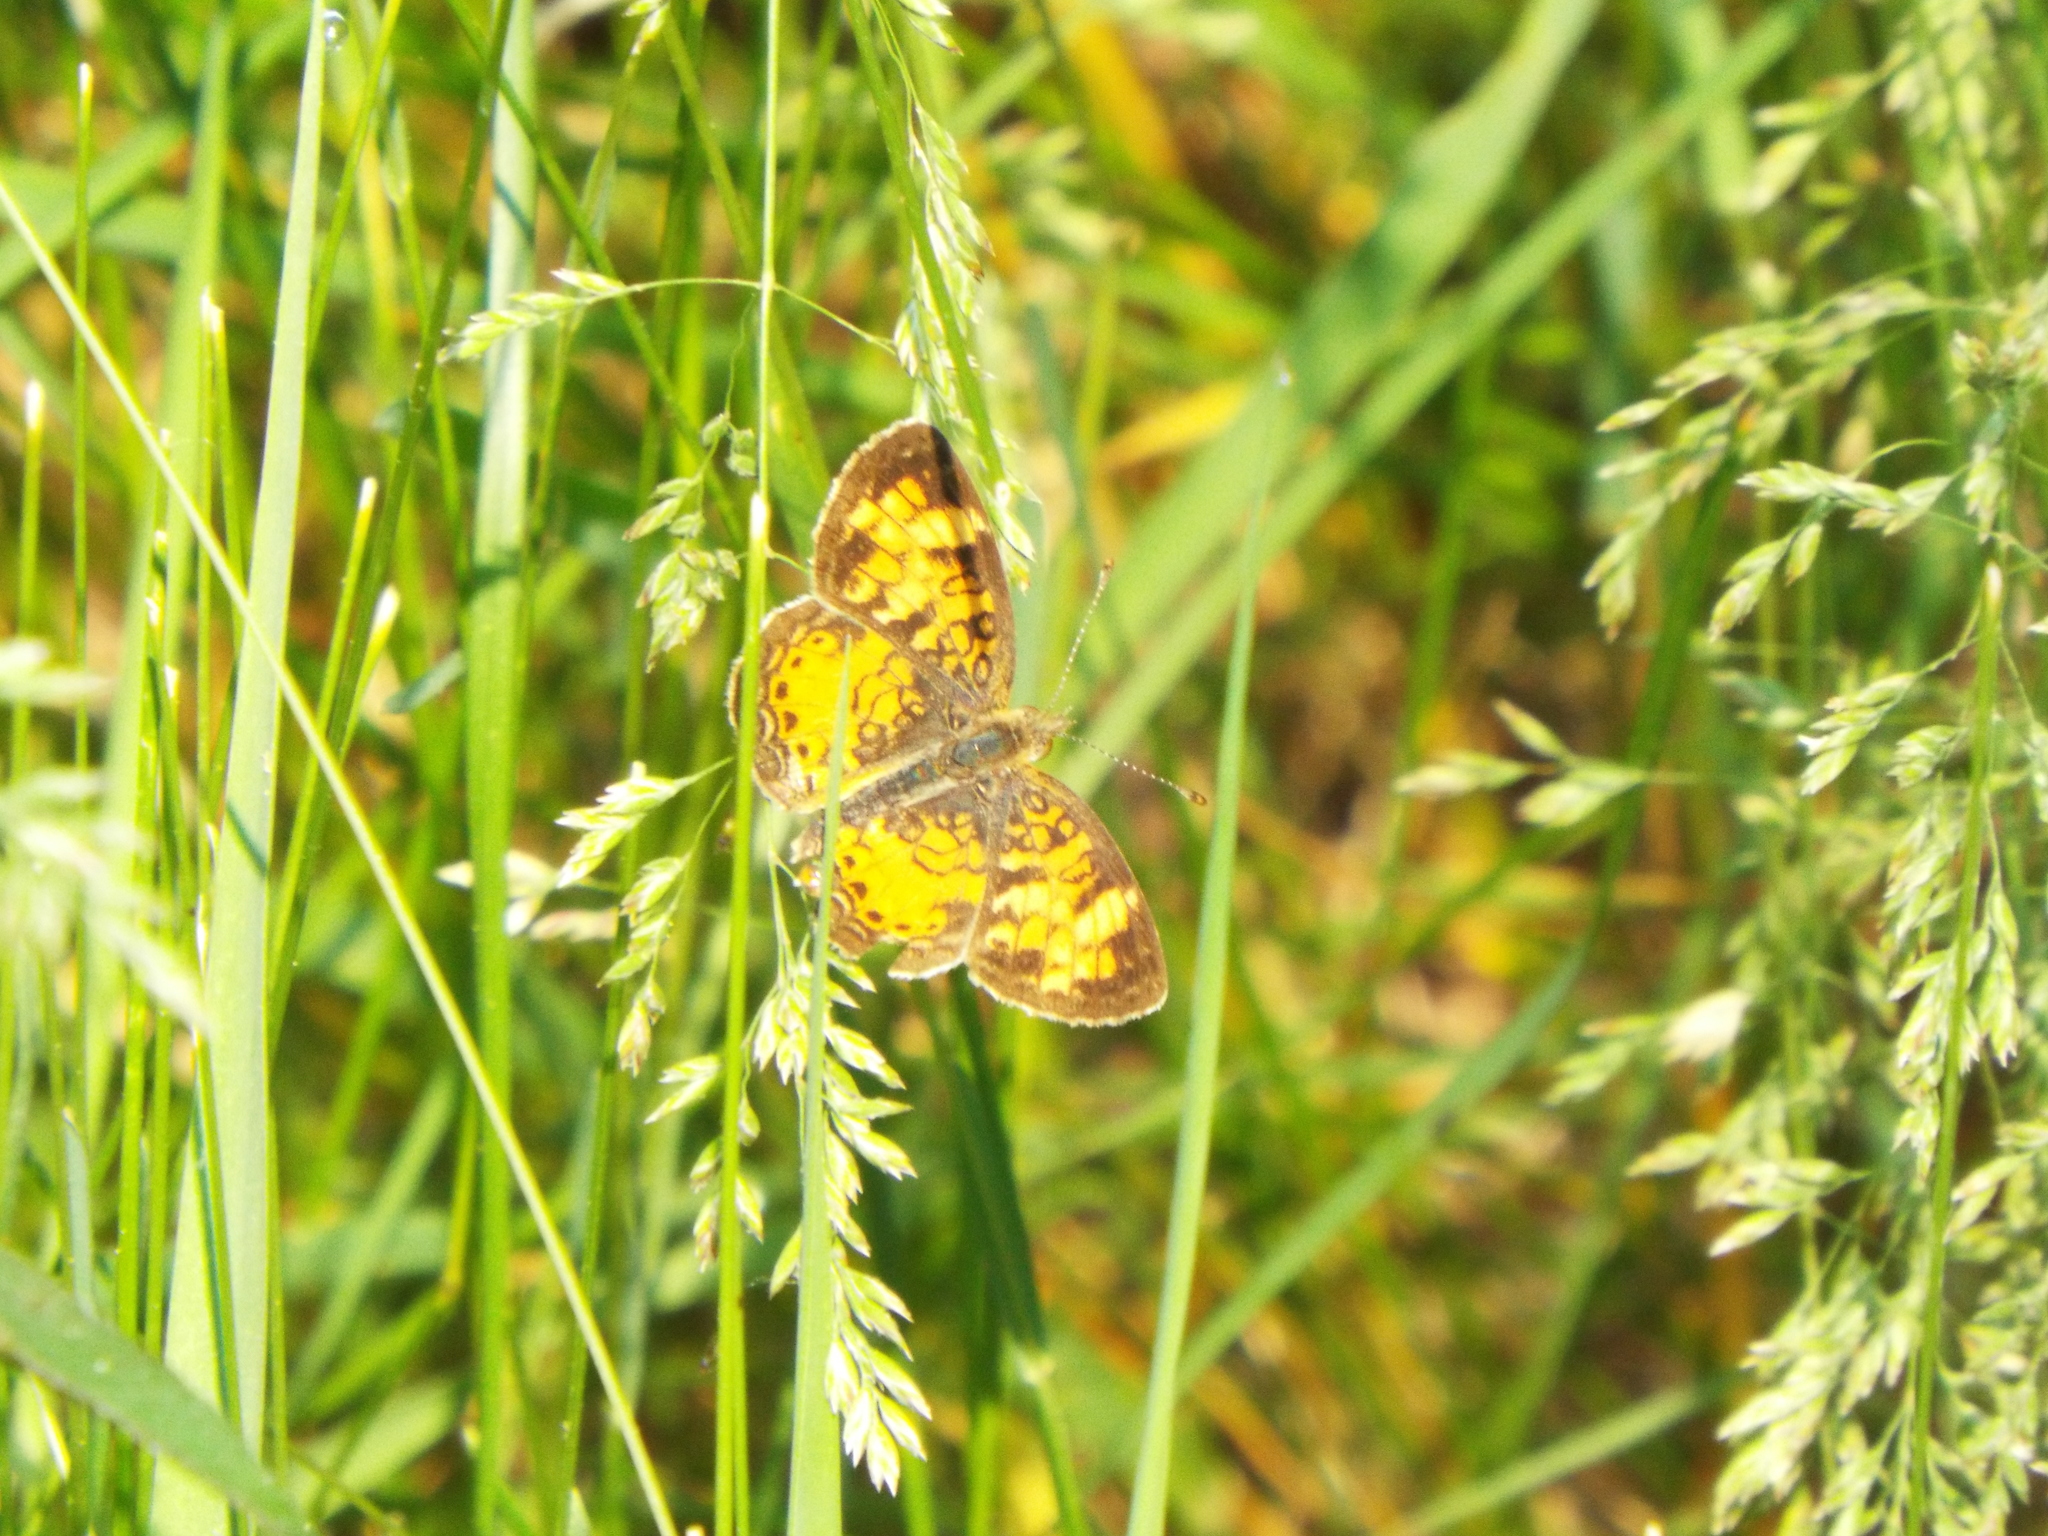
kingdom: Animalia
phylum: Arthropoda
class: Insecta
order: Lepidoptera
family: Nymphalidae
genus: Phyciodes
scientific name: Phyciodes tharos
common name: Pearl crescent
